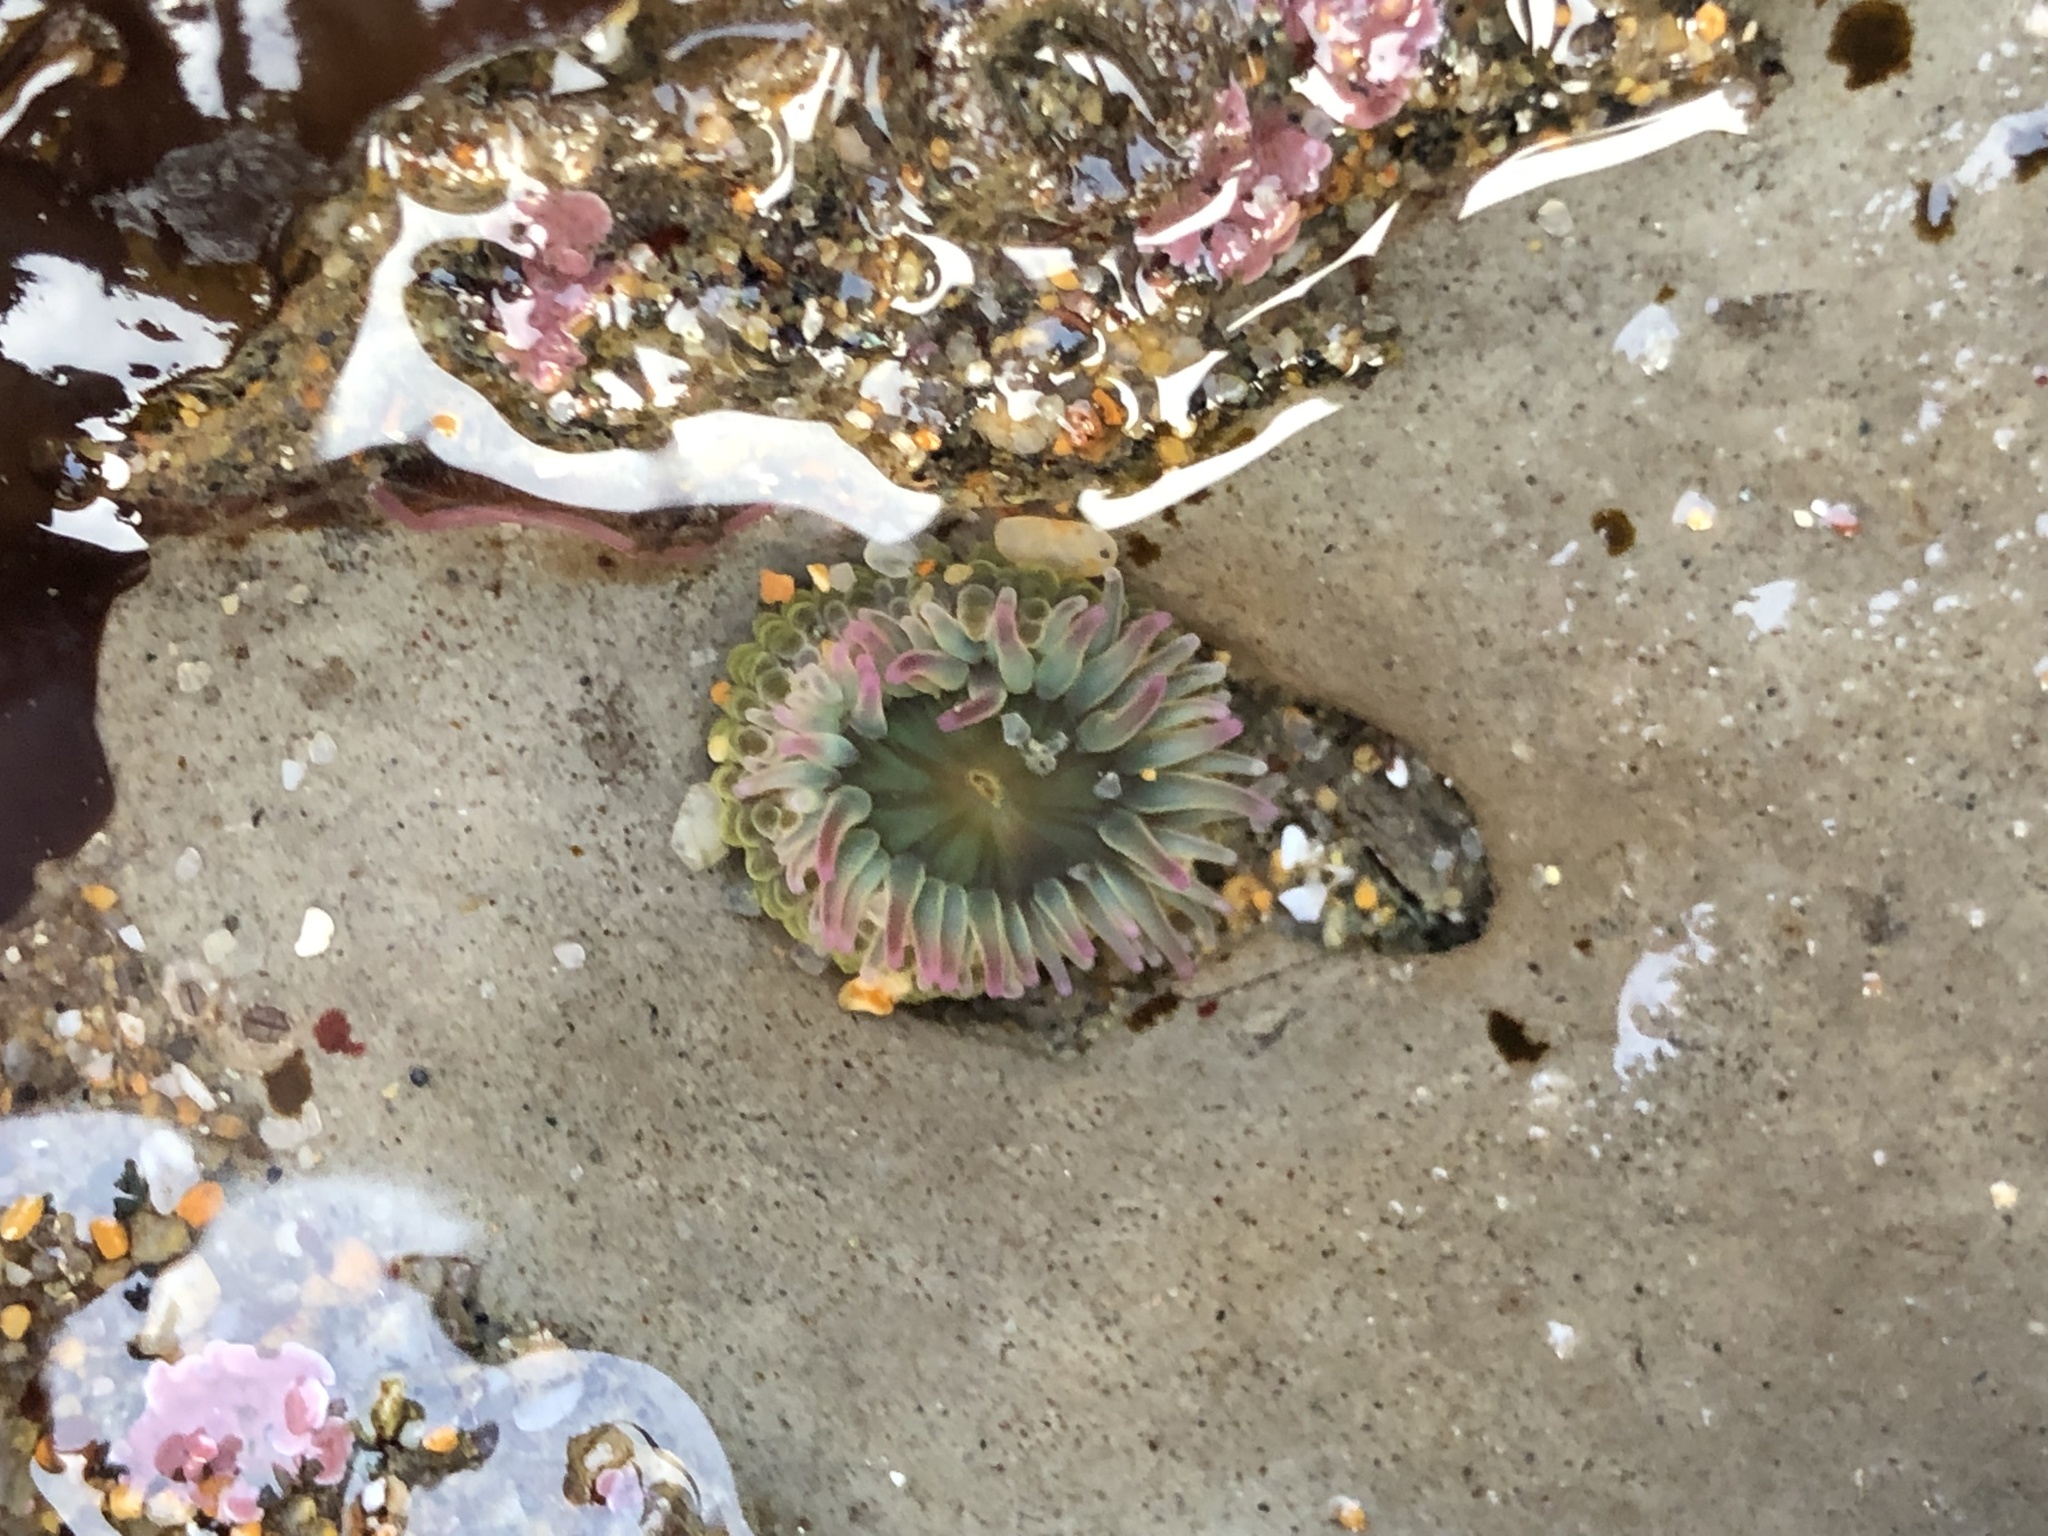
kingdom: Animalia
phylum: Cnidaria
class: Anthozoa
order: Actiniaria
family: Actiniidae
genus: Anthopleura
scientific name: Anthopleura elegantissima
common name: Clonal anemone
